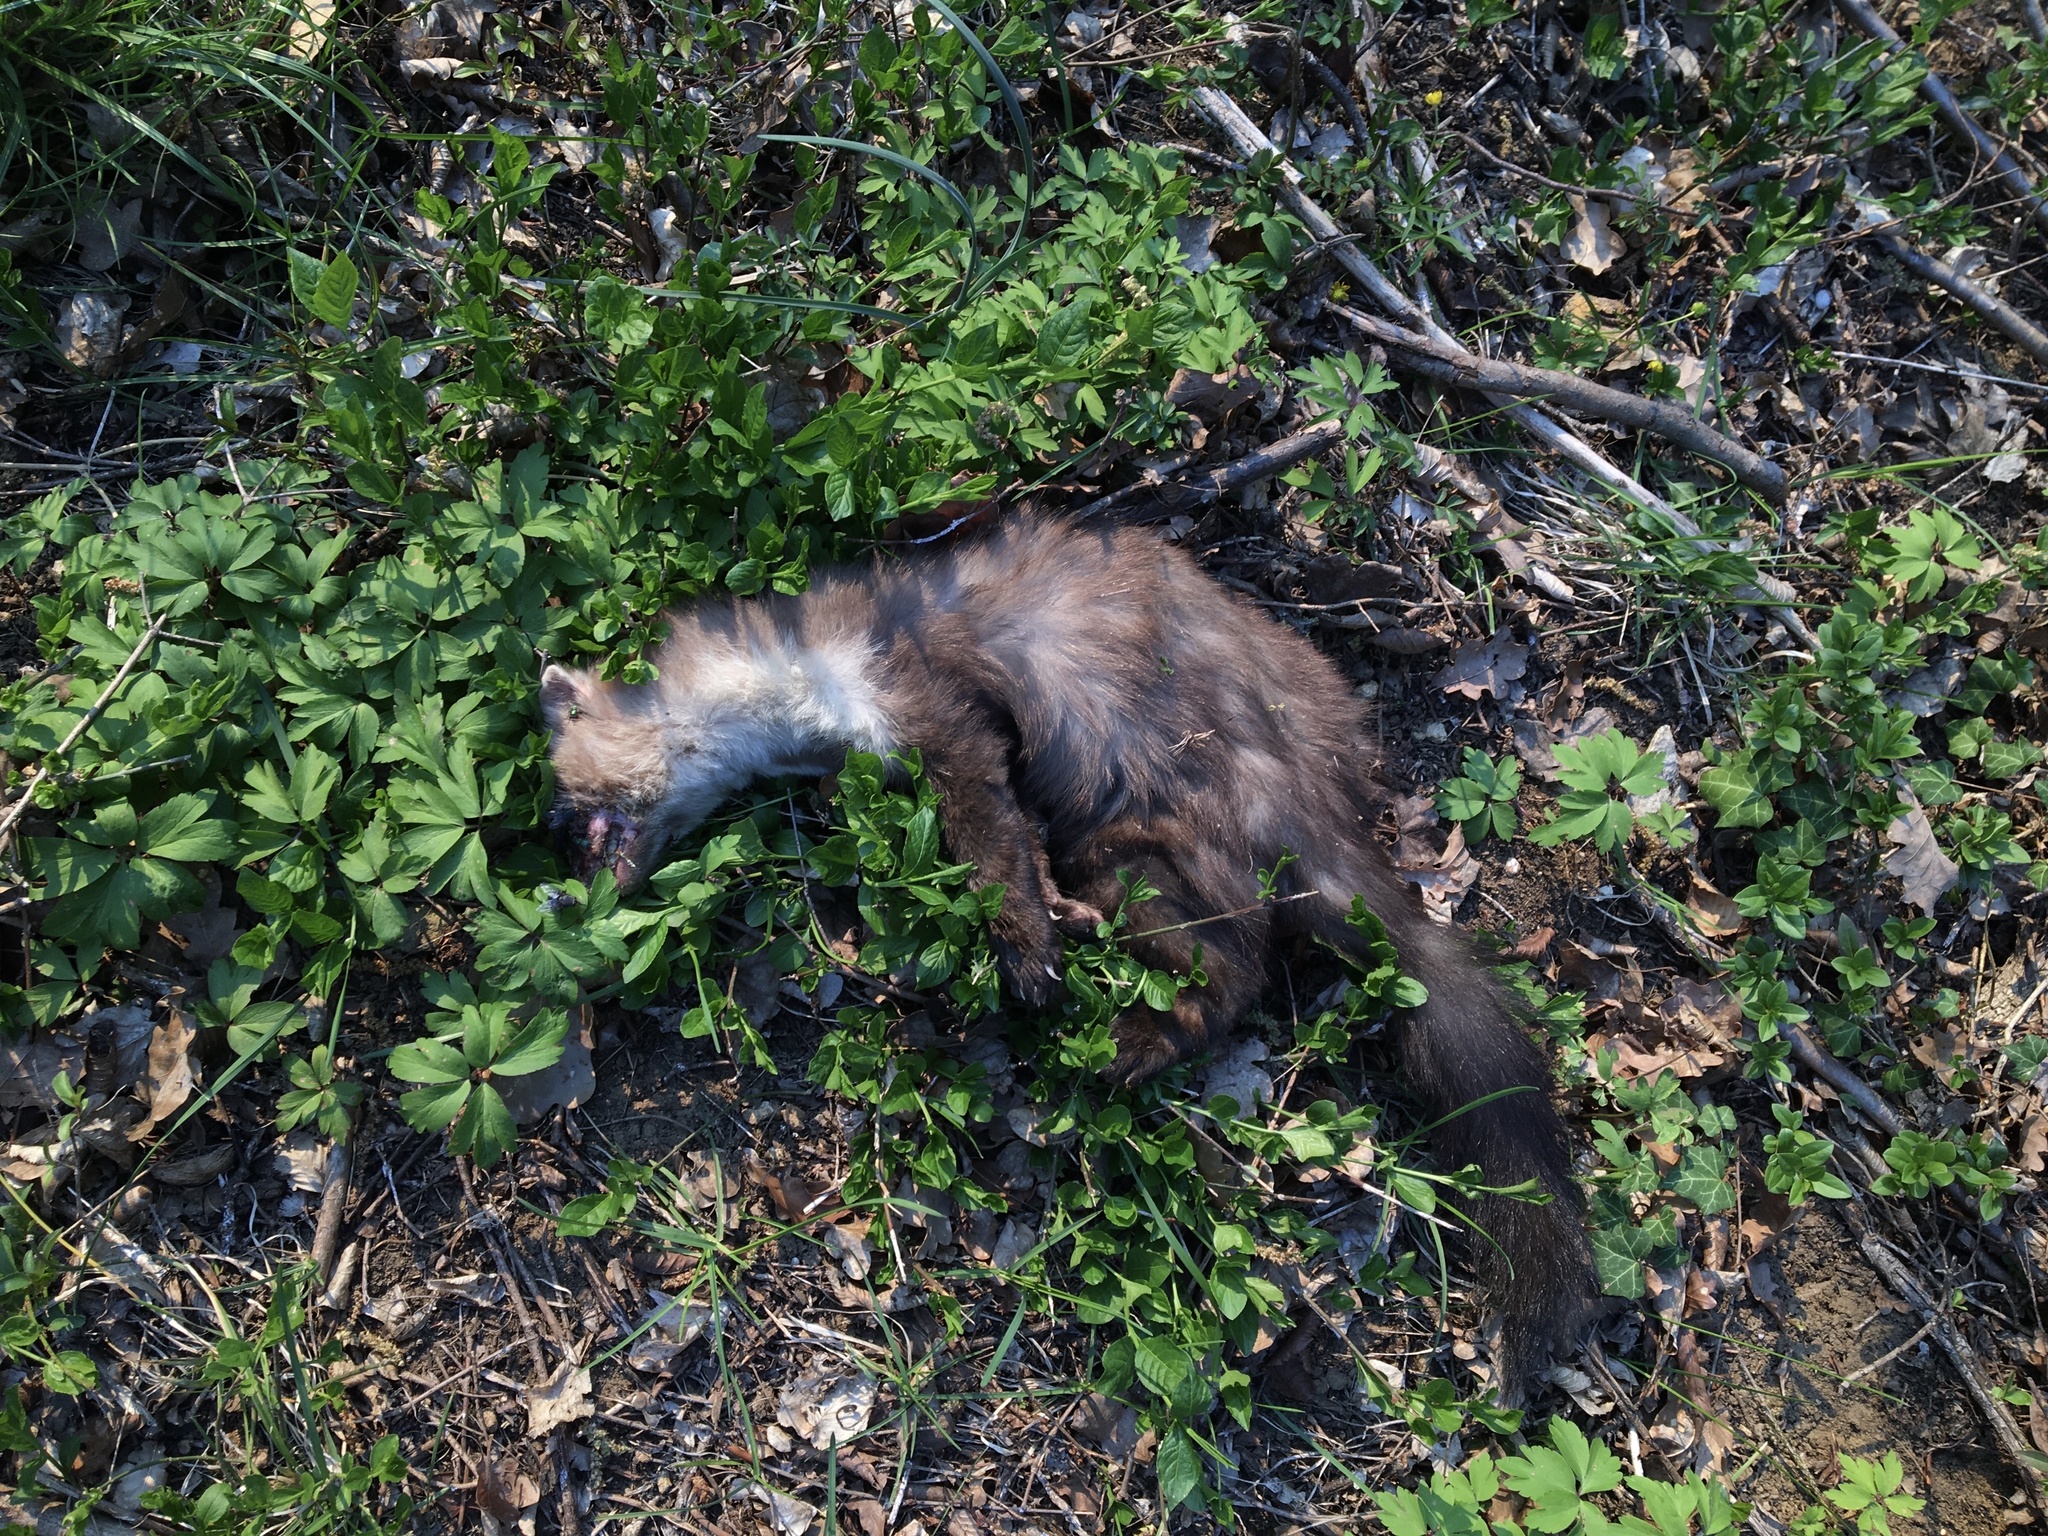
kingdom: Animalia
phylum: Chordata
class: Mammalia
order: Carnivora
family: Mustelidae
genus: Martes
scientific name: Martes foina
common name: Beech marten
